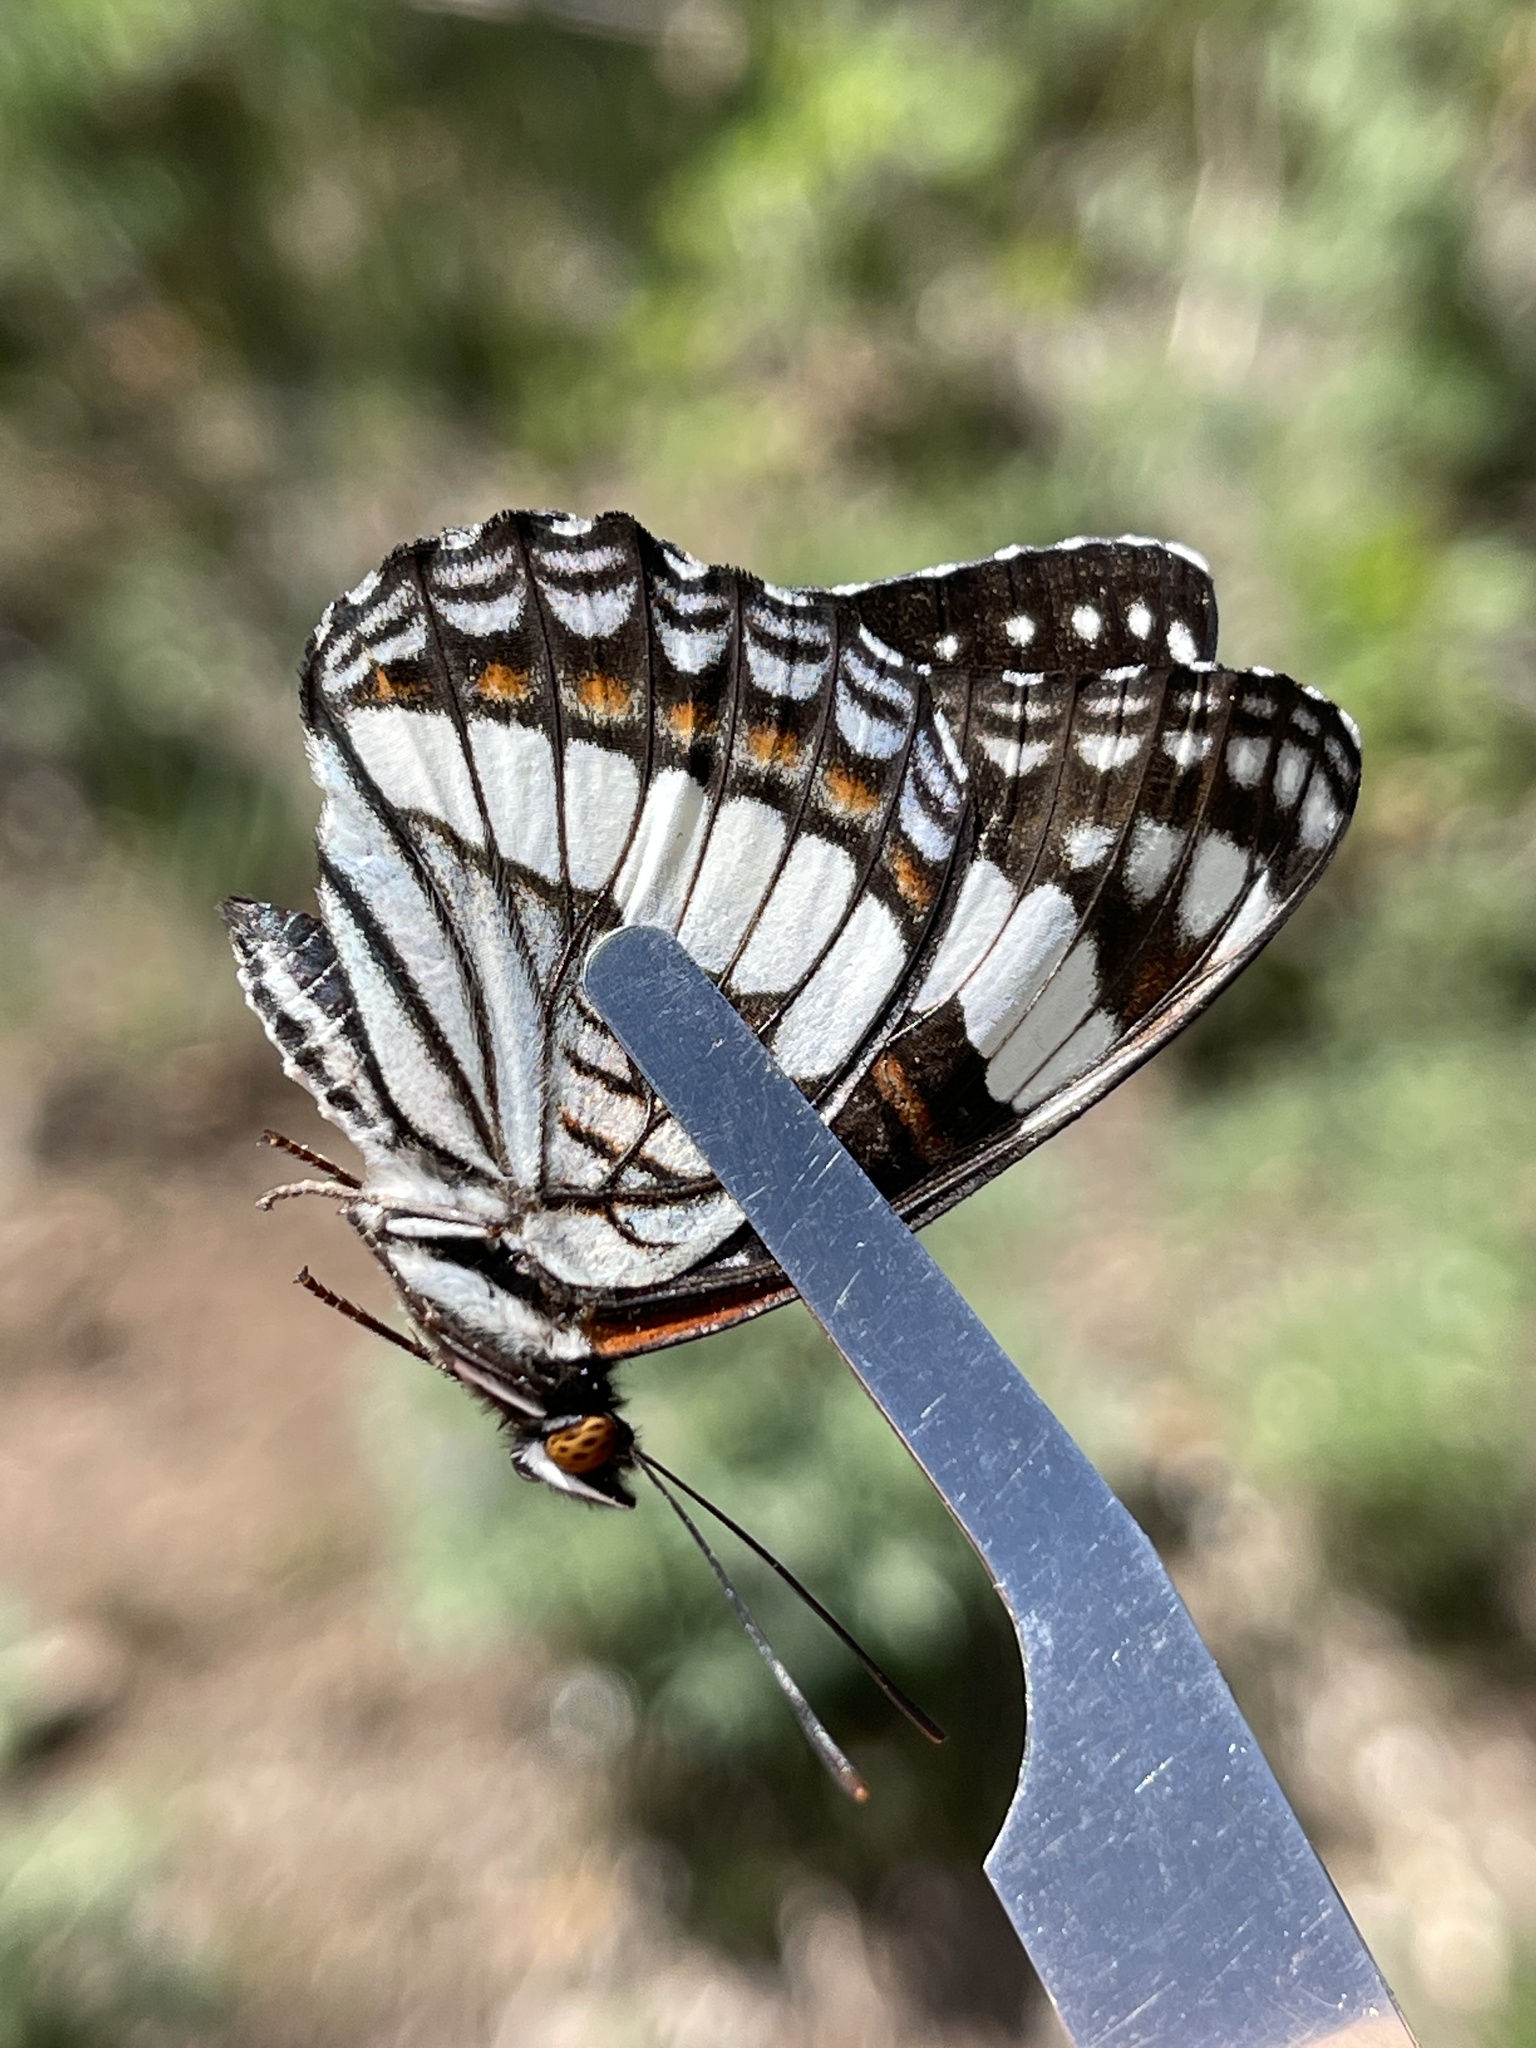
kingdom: Animalia
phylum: Arthropoda
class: Insecta
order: Lepidoptera
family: Nymphalidae
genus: Limenitis
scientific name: Limenitis weidemeyerii
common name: Weidemeyer's admiral
